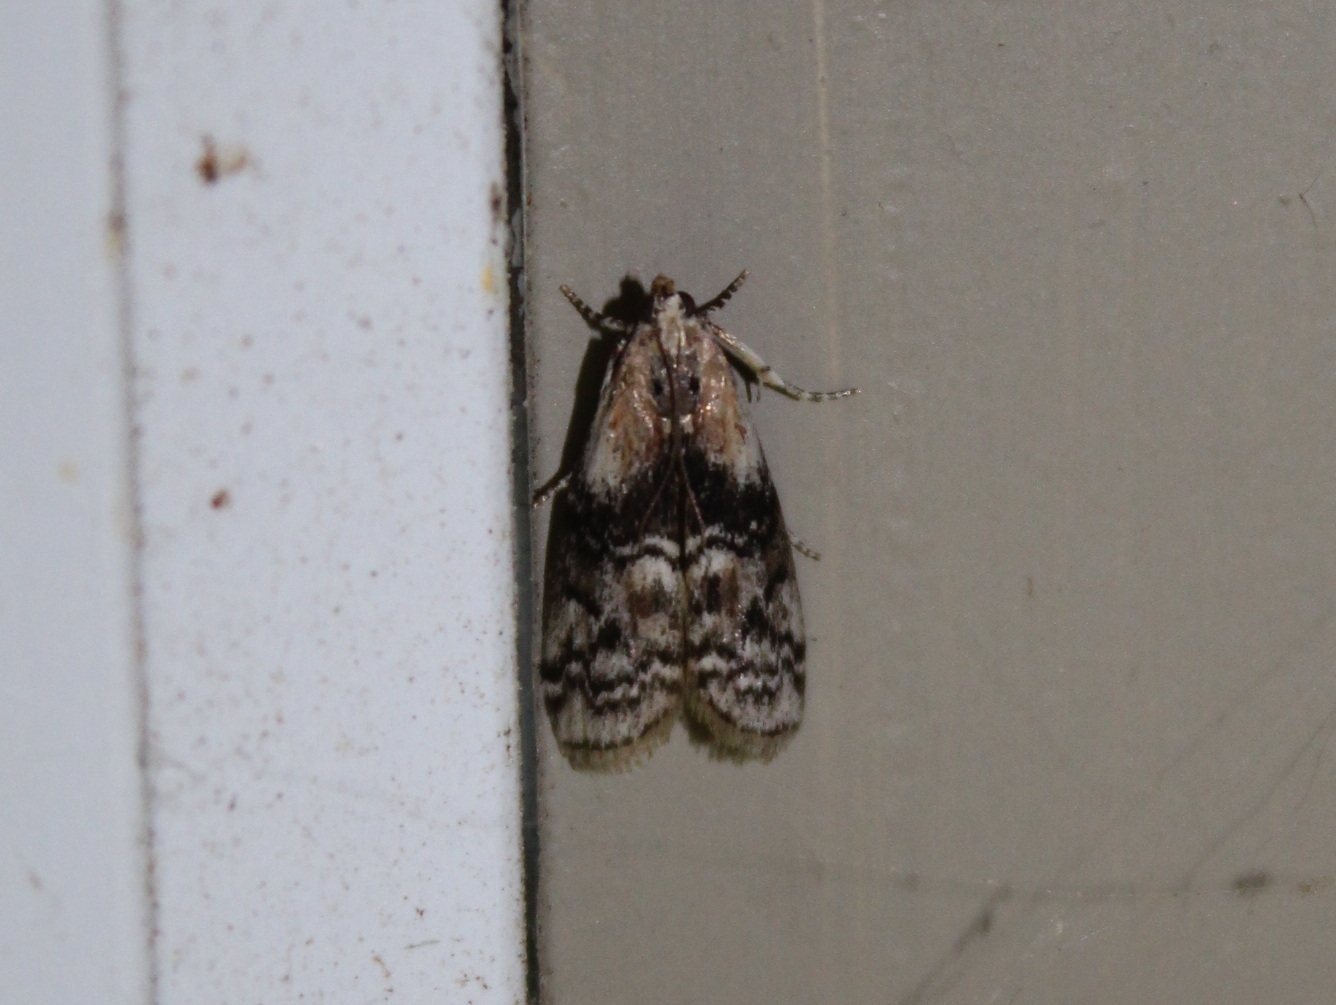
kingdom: Animalia
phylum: Arthropoda
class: Insecta
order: Lepidoptera
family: Pyralidae
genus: Glyptocera
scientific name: Glyptocera consobrinella
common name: Viburnum glyptocera moth
